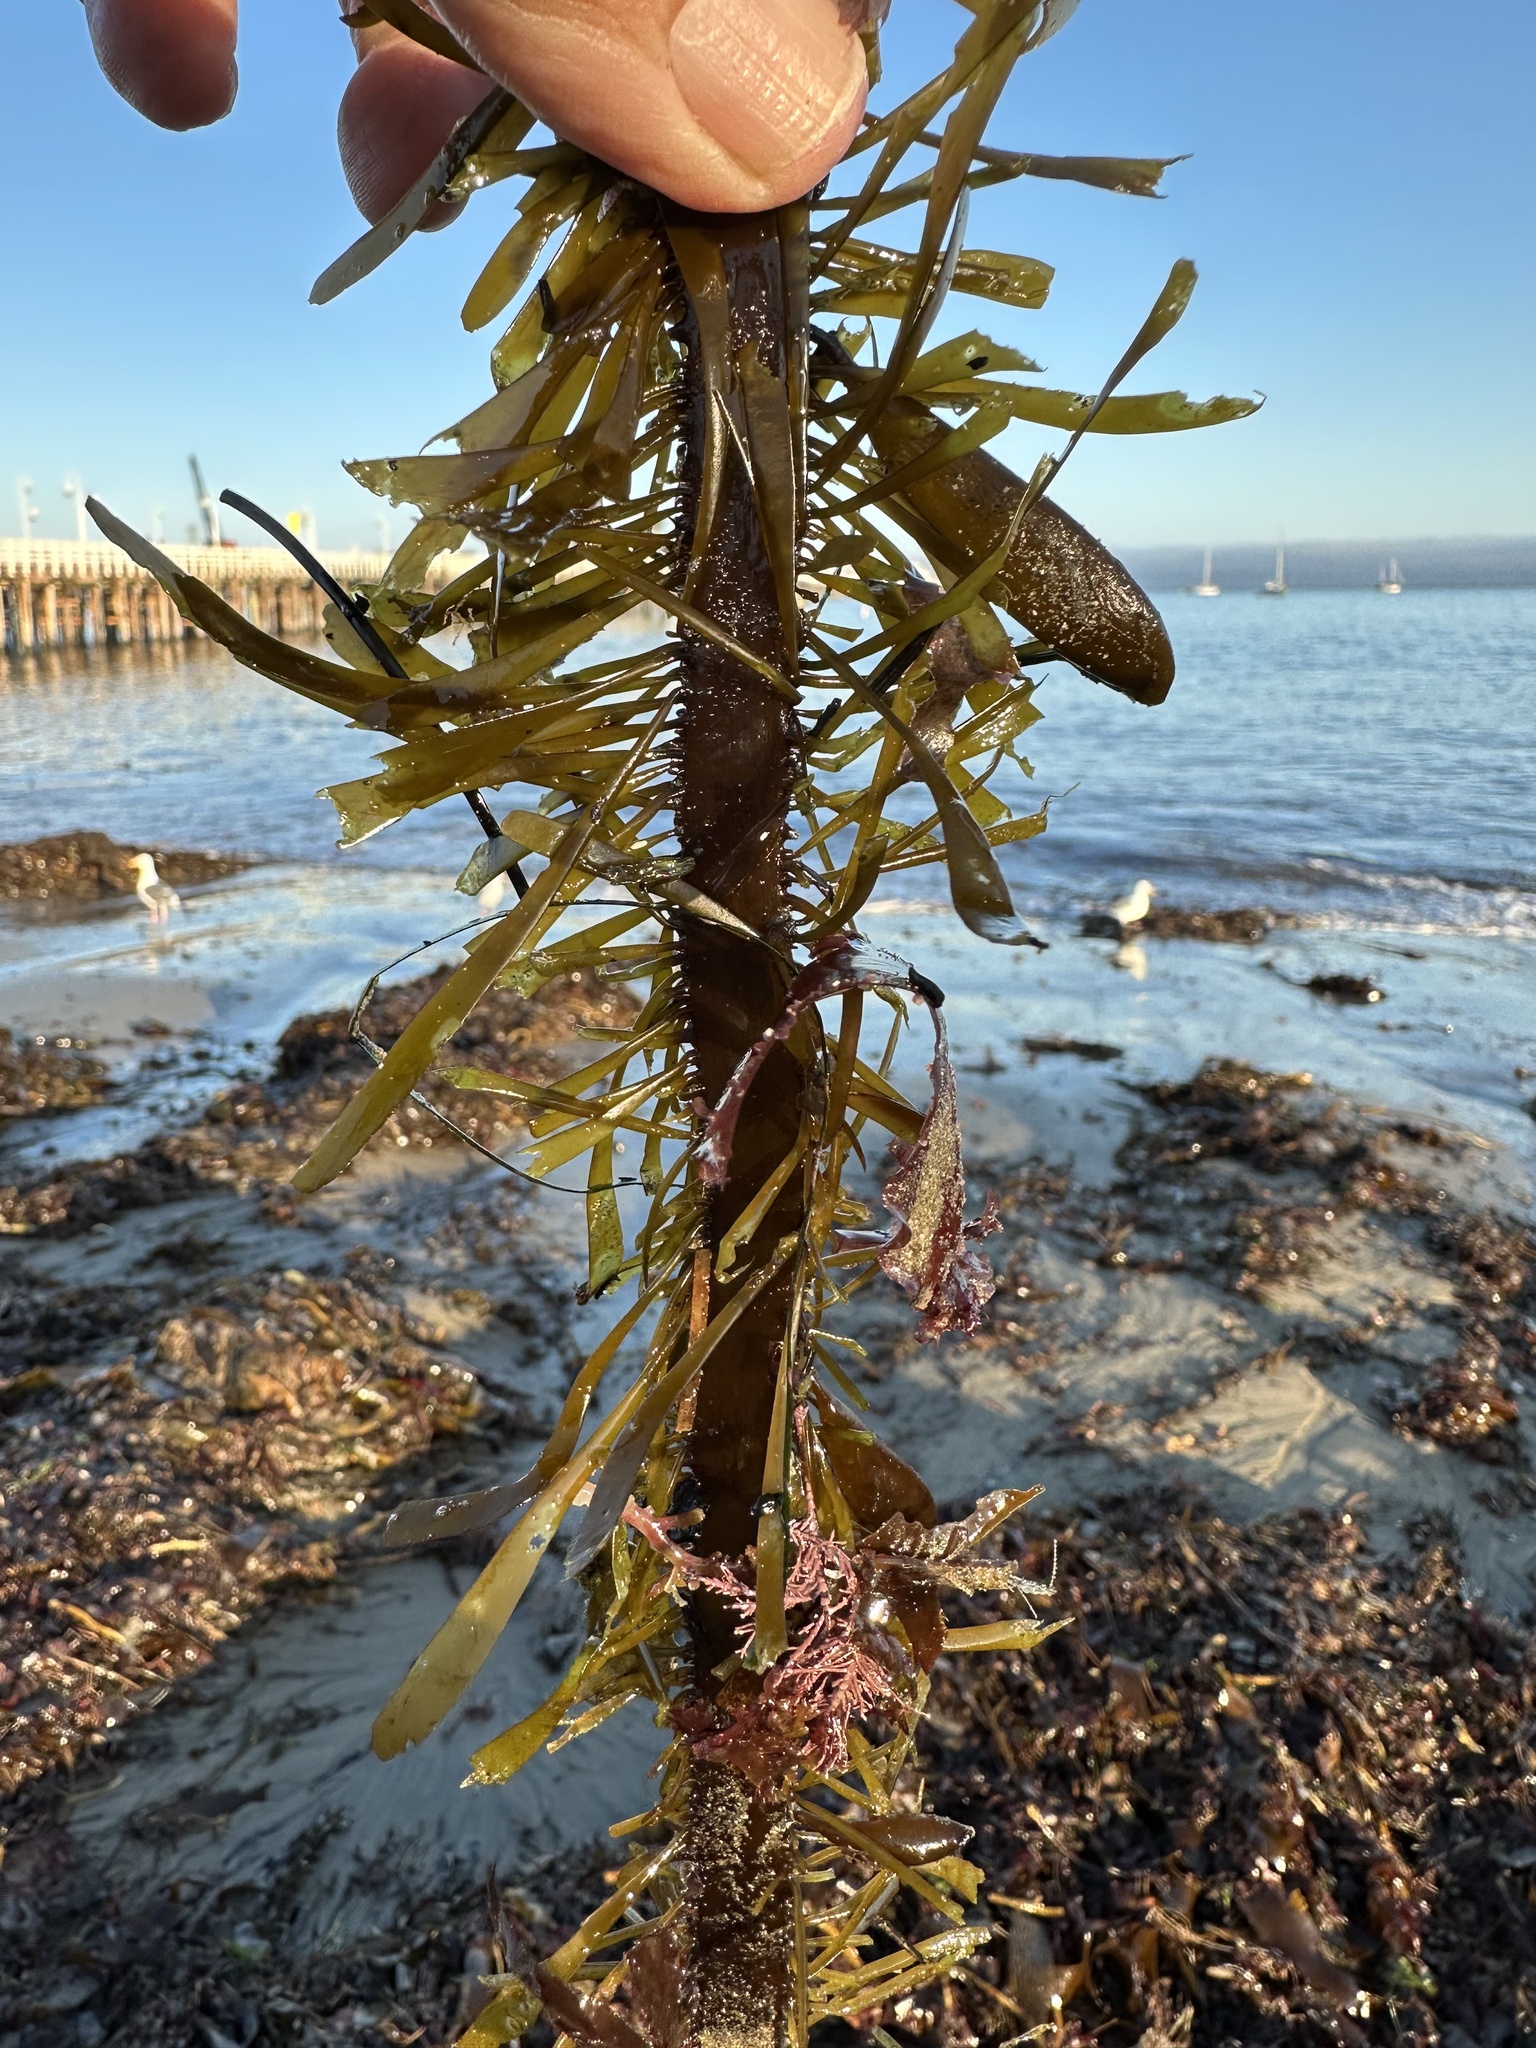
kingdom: Chromista
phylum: Ochrophyta
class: Phaeophyceae
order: Laminariales
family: Lessoniaceae
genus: Egregia
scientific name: Egregia menziesii
